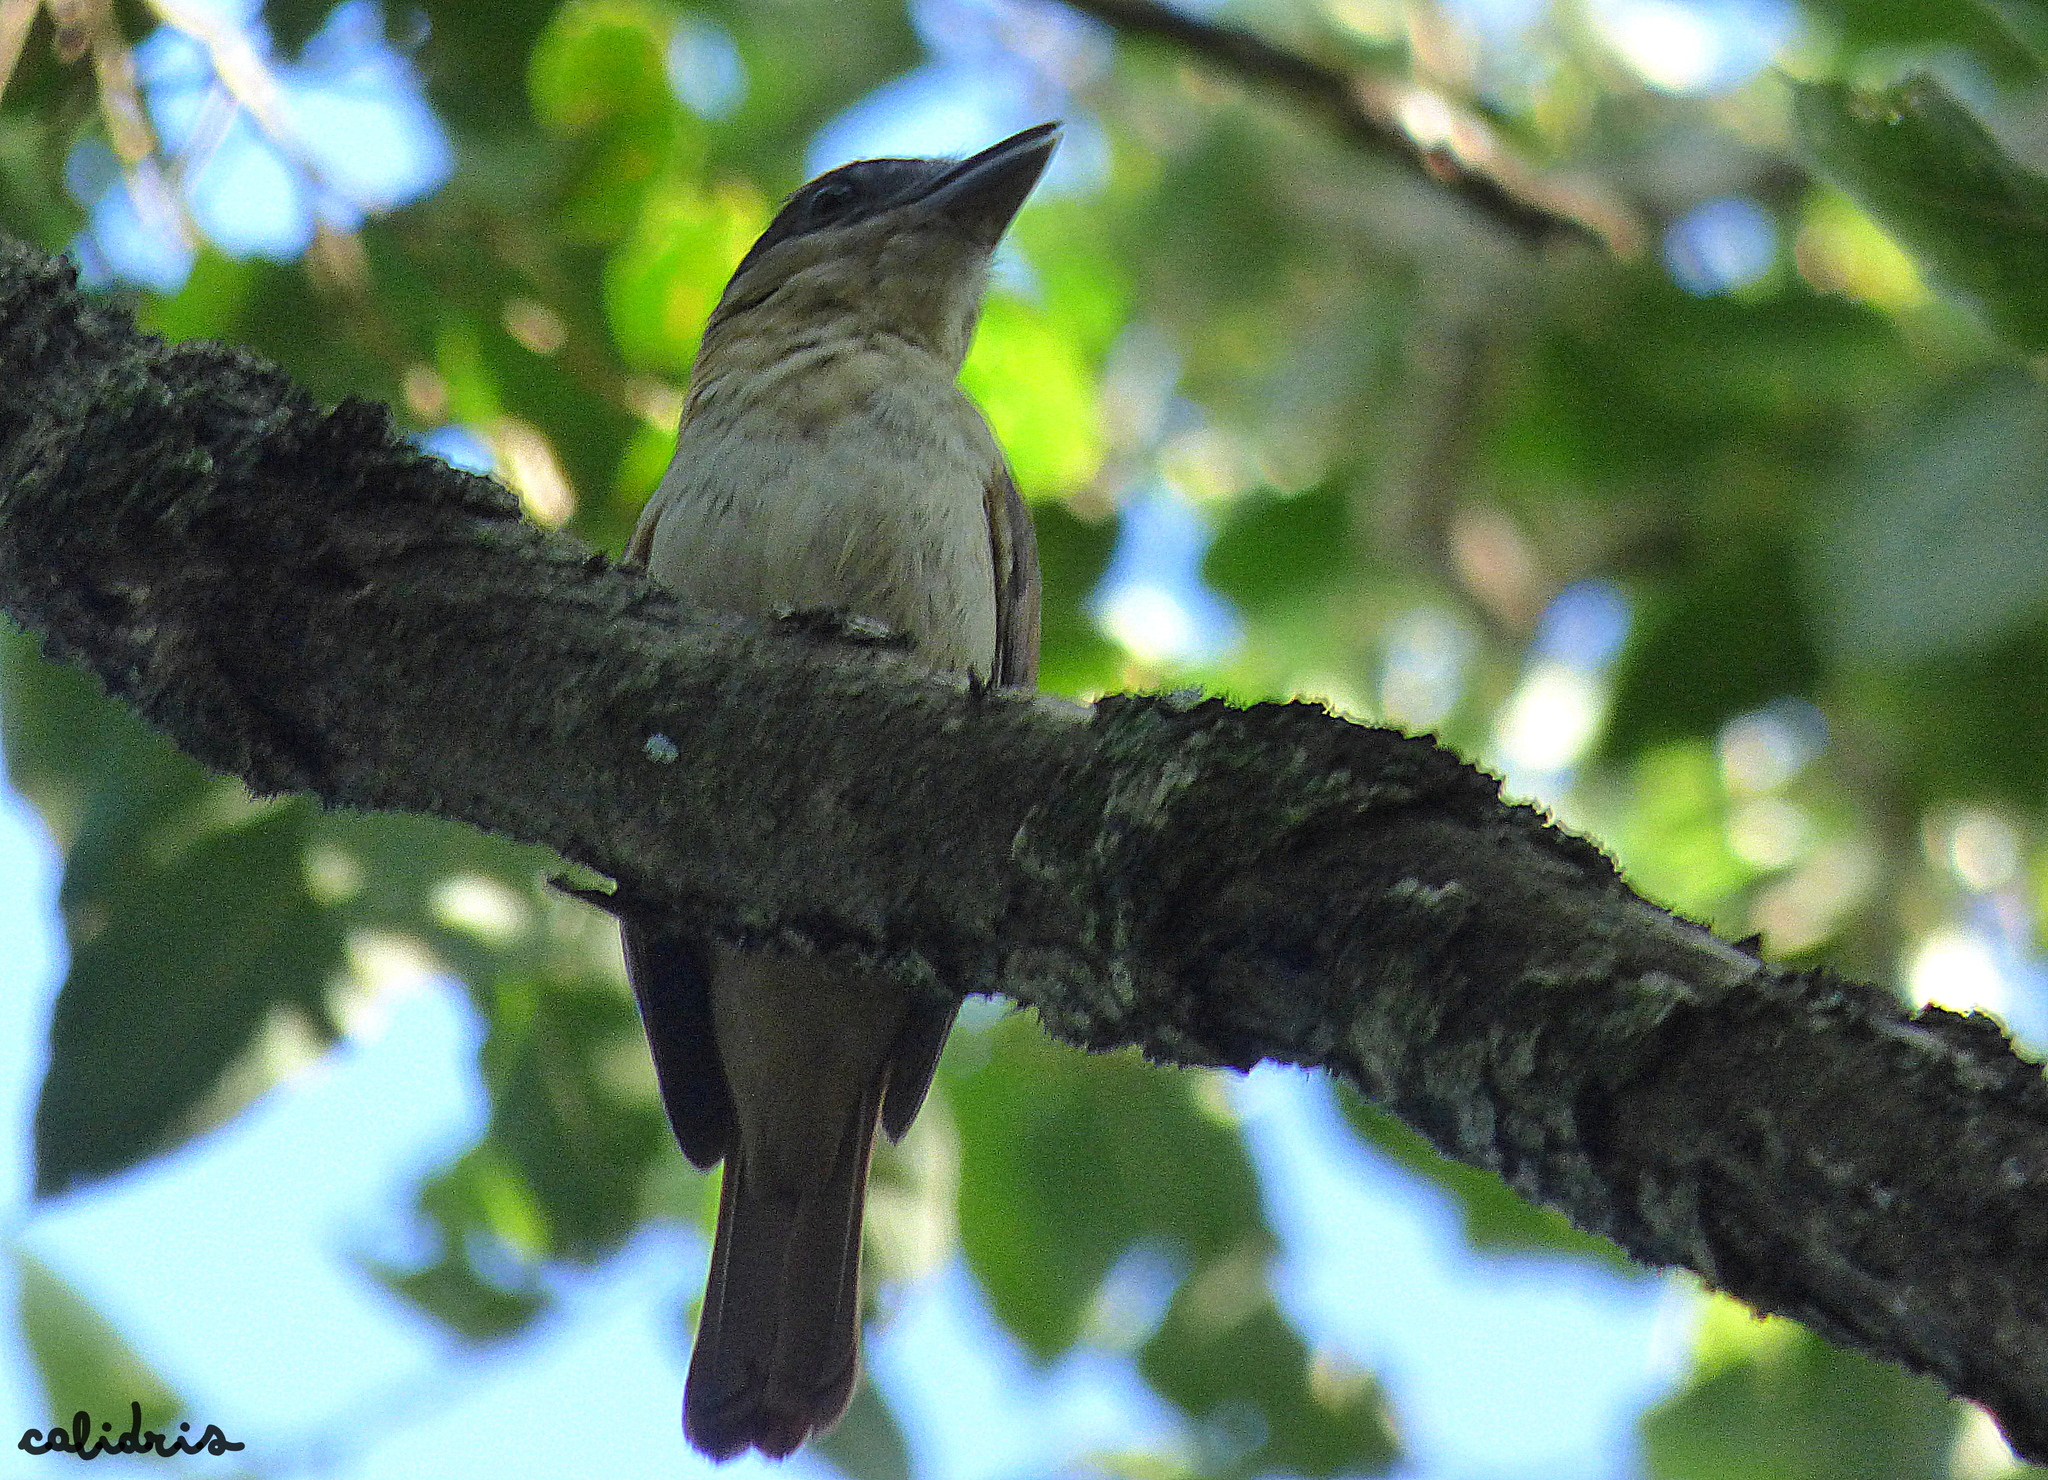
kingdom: Animalia
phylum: Chordata
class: Aves
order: Passeriformes
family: Cotingidae
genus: Pachyramphus
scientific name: Pachyramphus validus
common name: Crested becard
